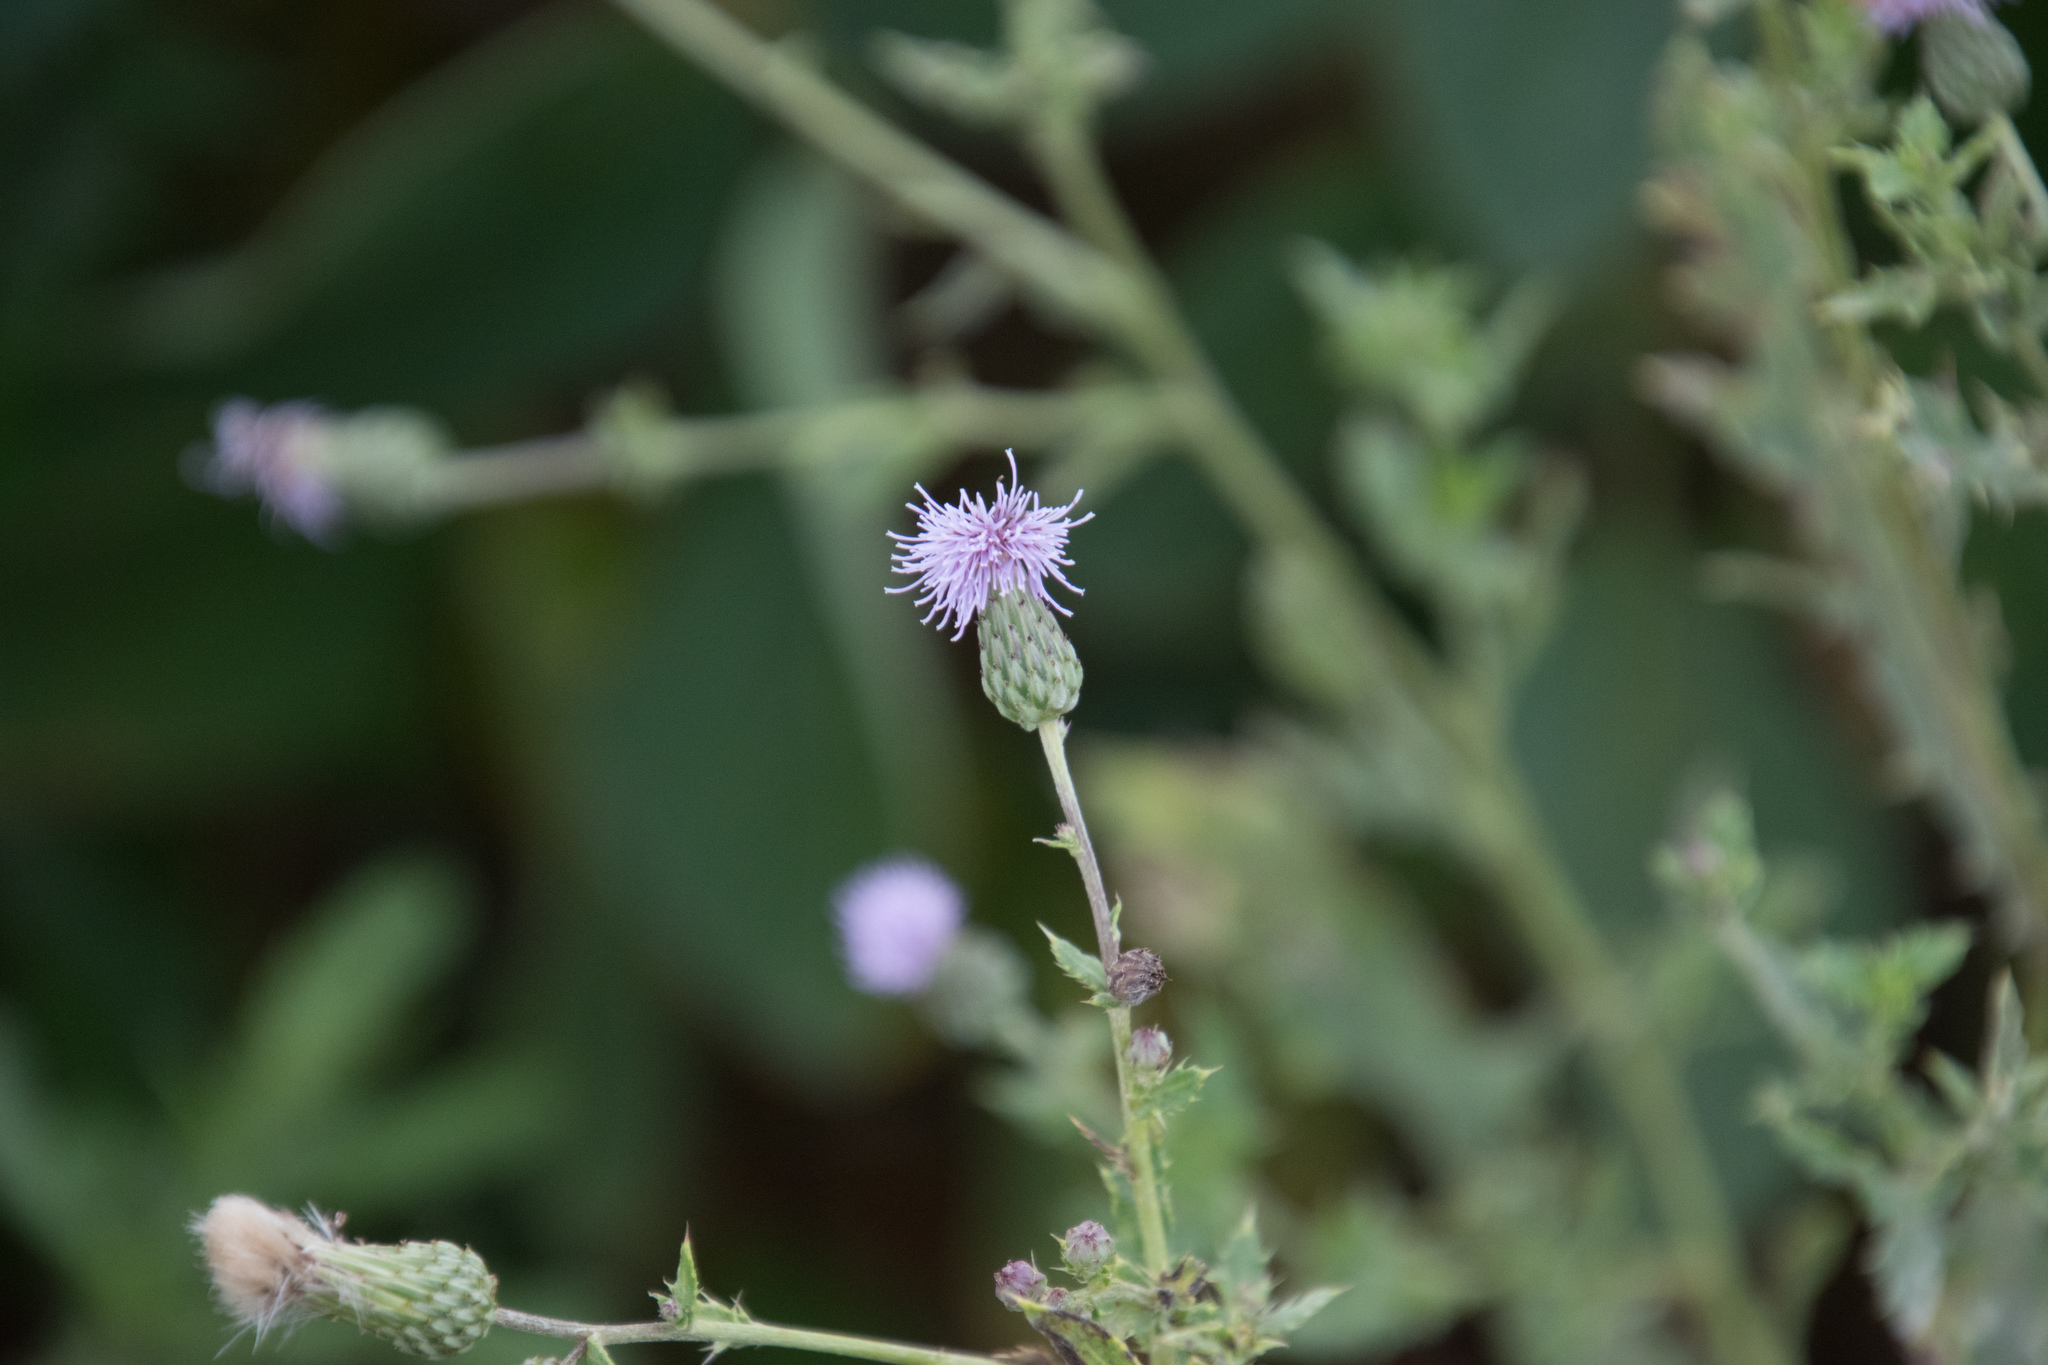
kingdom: Plantae
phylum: Tracheophyta
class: Magnoliopsida
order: Asterales
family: Asteraceae
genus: Cirsium
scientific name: Cirsium arvense
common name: Creeping thistle
